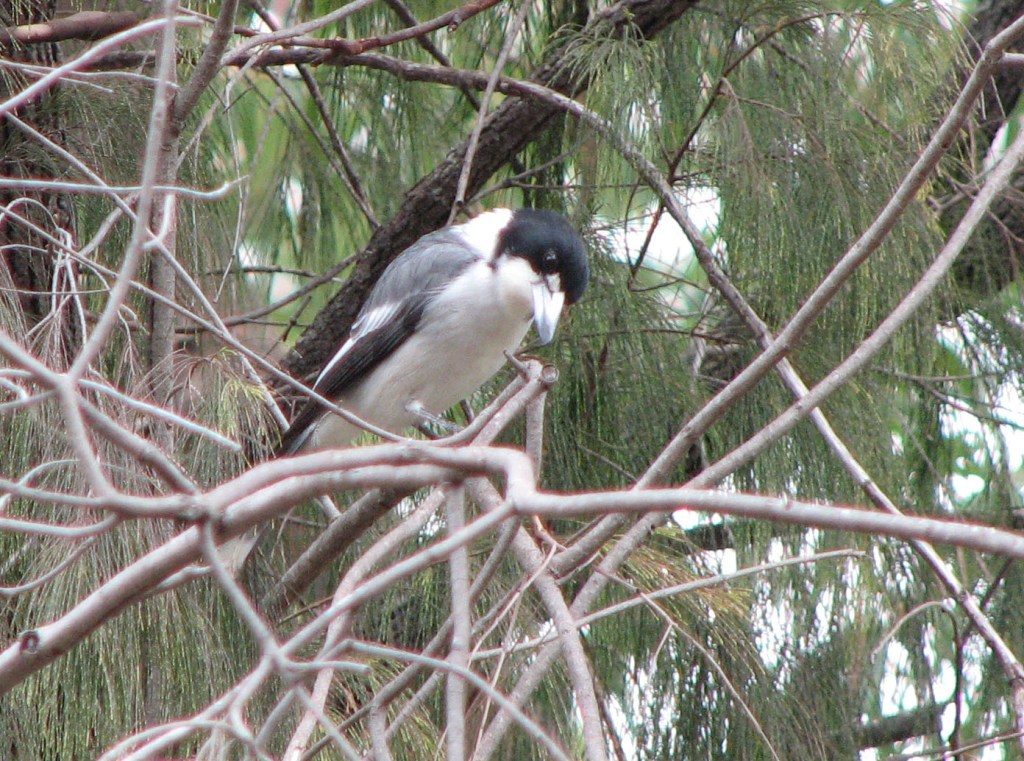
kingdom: Animalia
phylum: Chordata
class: Aves
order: Passeriformes
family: Cracticidae
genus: Cracticus
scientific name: Cracticus torquatus
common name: Grey butcherbird
